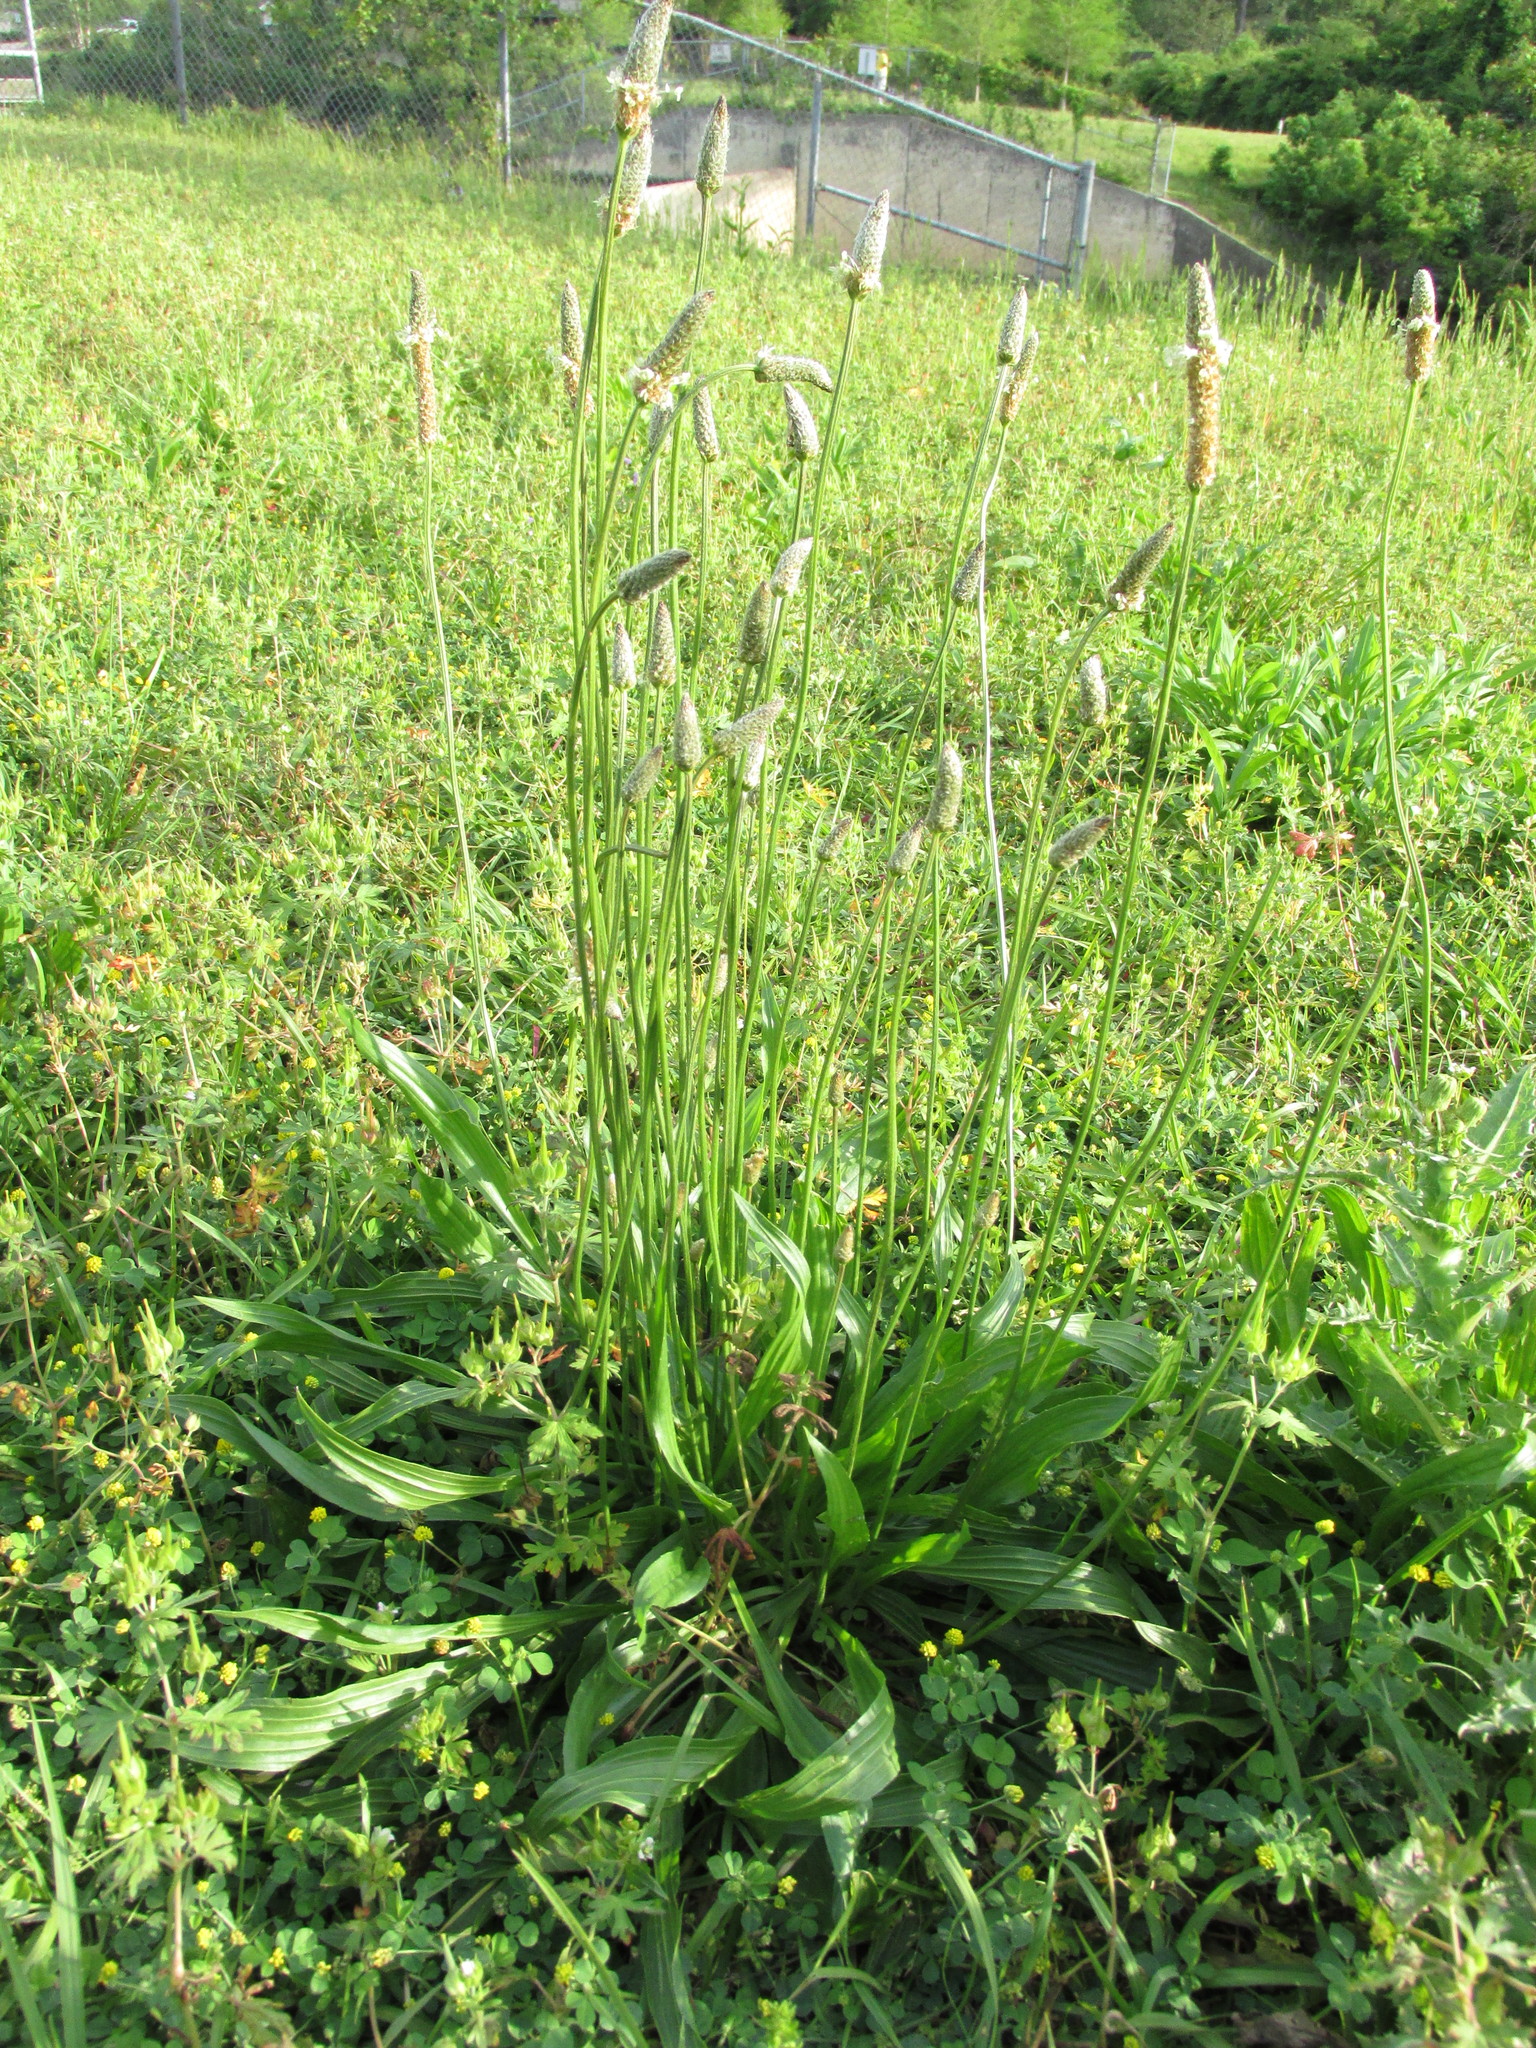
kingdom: Plantae
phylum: Tracheophyta
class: Magnoliopsida
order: Lamiales
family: Plantaginaceae
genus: Plantago
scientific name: Plantago lanceolata
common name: Ribwort plantain
